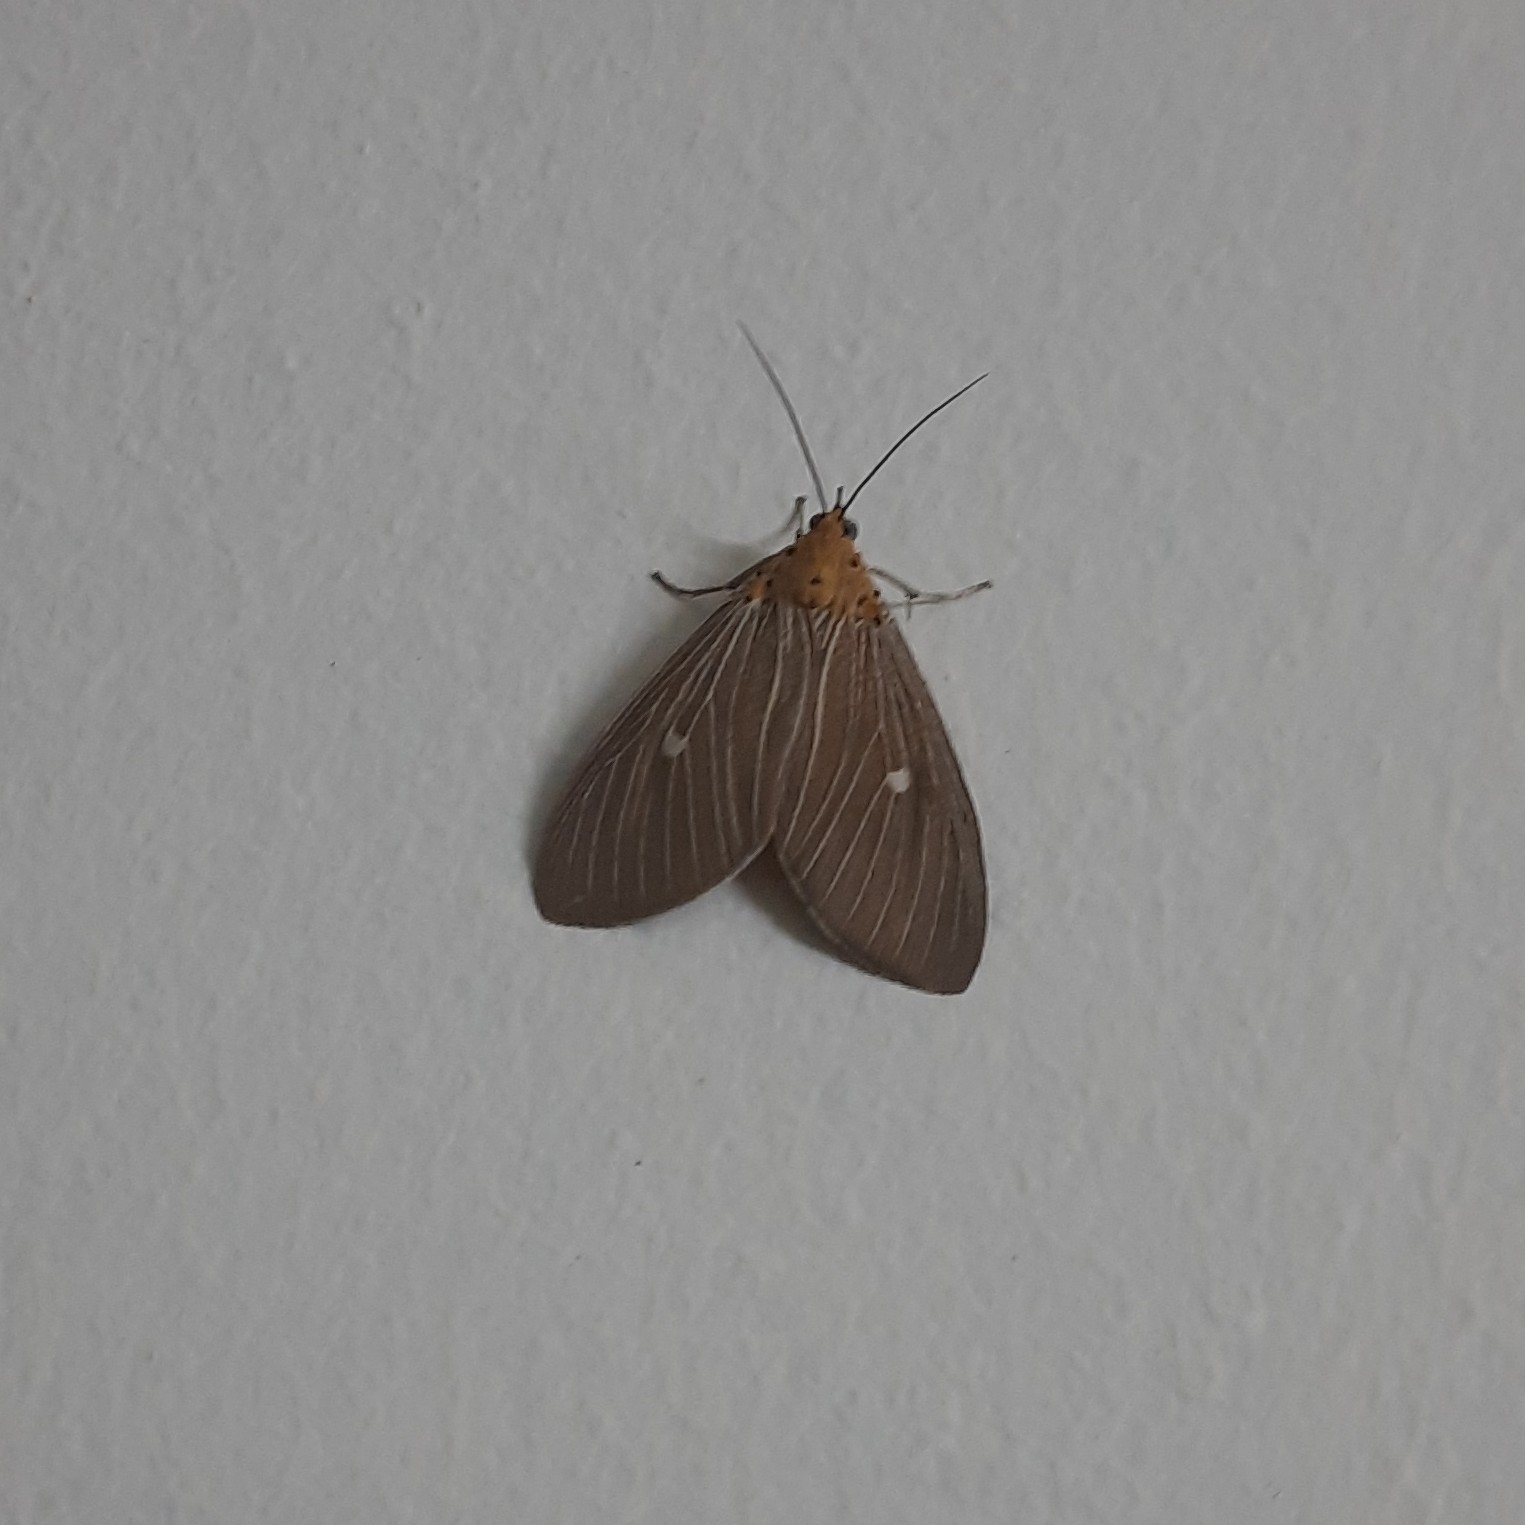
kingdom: Animalia
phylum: Arthropoda
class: Insecta
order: Lepidoptera
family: Erebidae
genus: Asota
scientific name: Asota caricae
